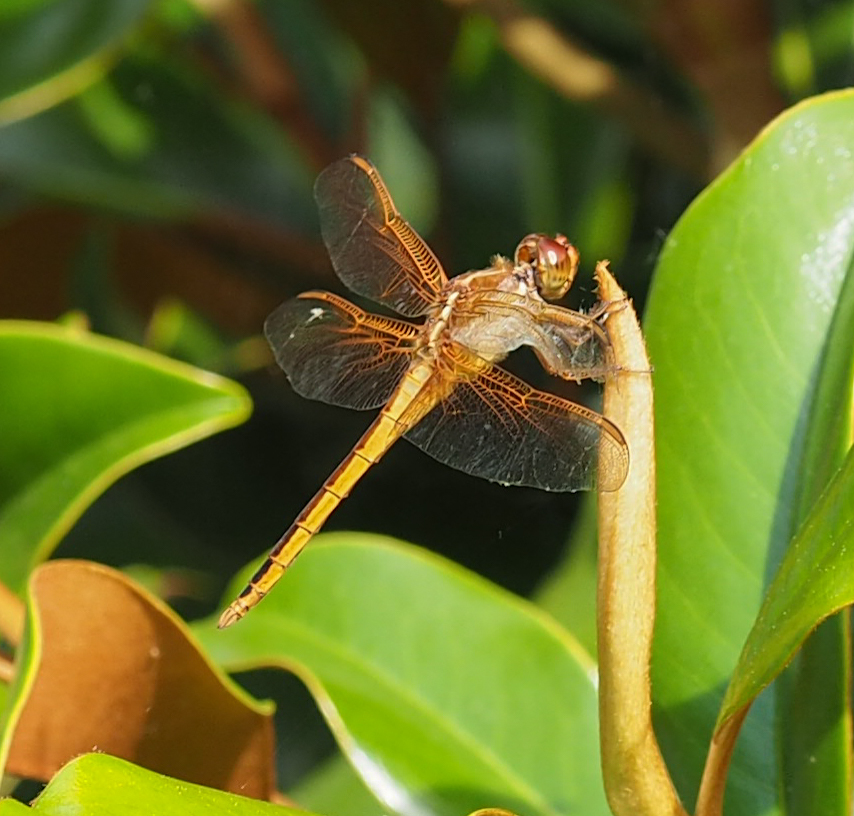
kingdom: Animalia
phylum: Arthropoda
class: Insecta
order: Odonata
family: Libellulidae
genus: Libellula
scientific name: Libellula needhami
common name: Needham's skimmer
